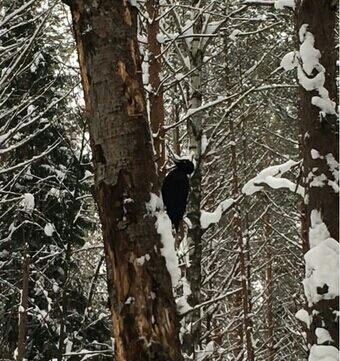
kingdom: Animalia
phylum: Chordata
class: Aves
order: Piciformes
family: Picidae
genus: Dryocopus
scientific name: Dryocopus martius
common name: Black woodpecker
